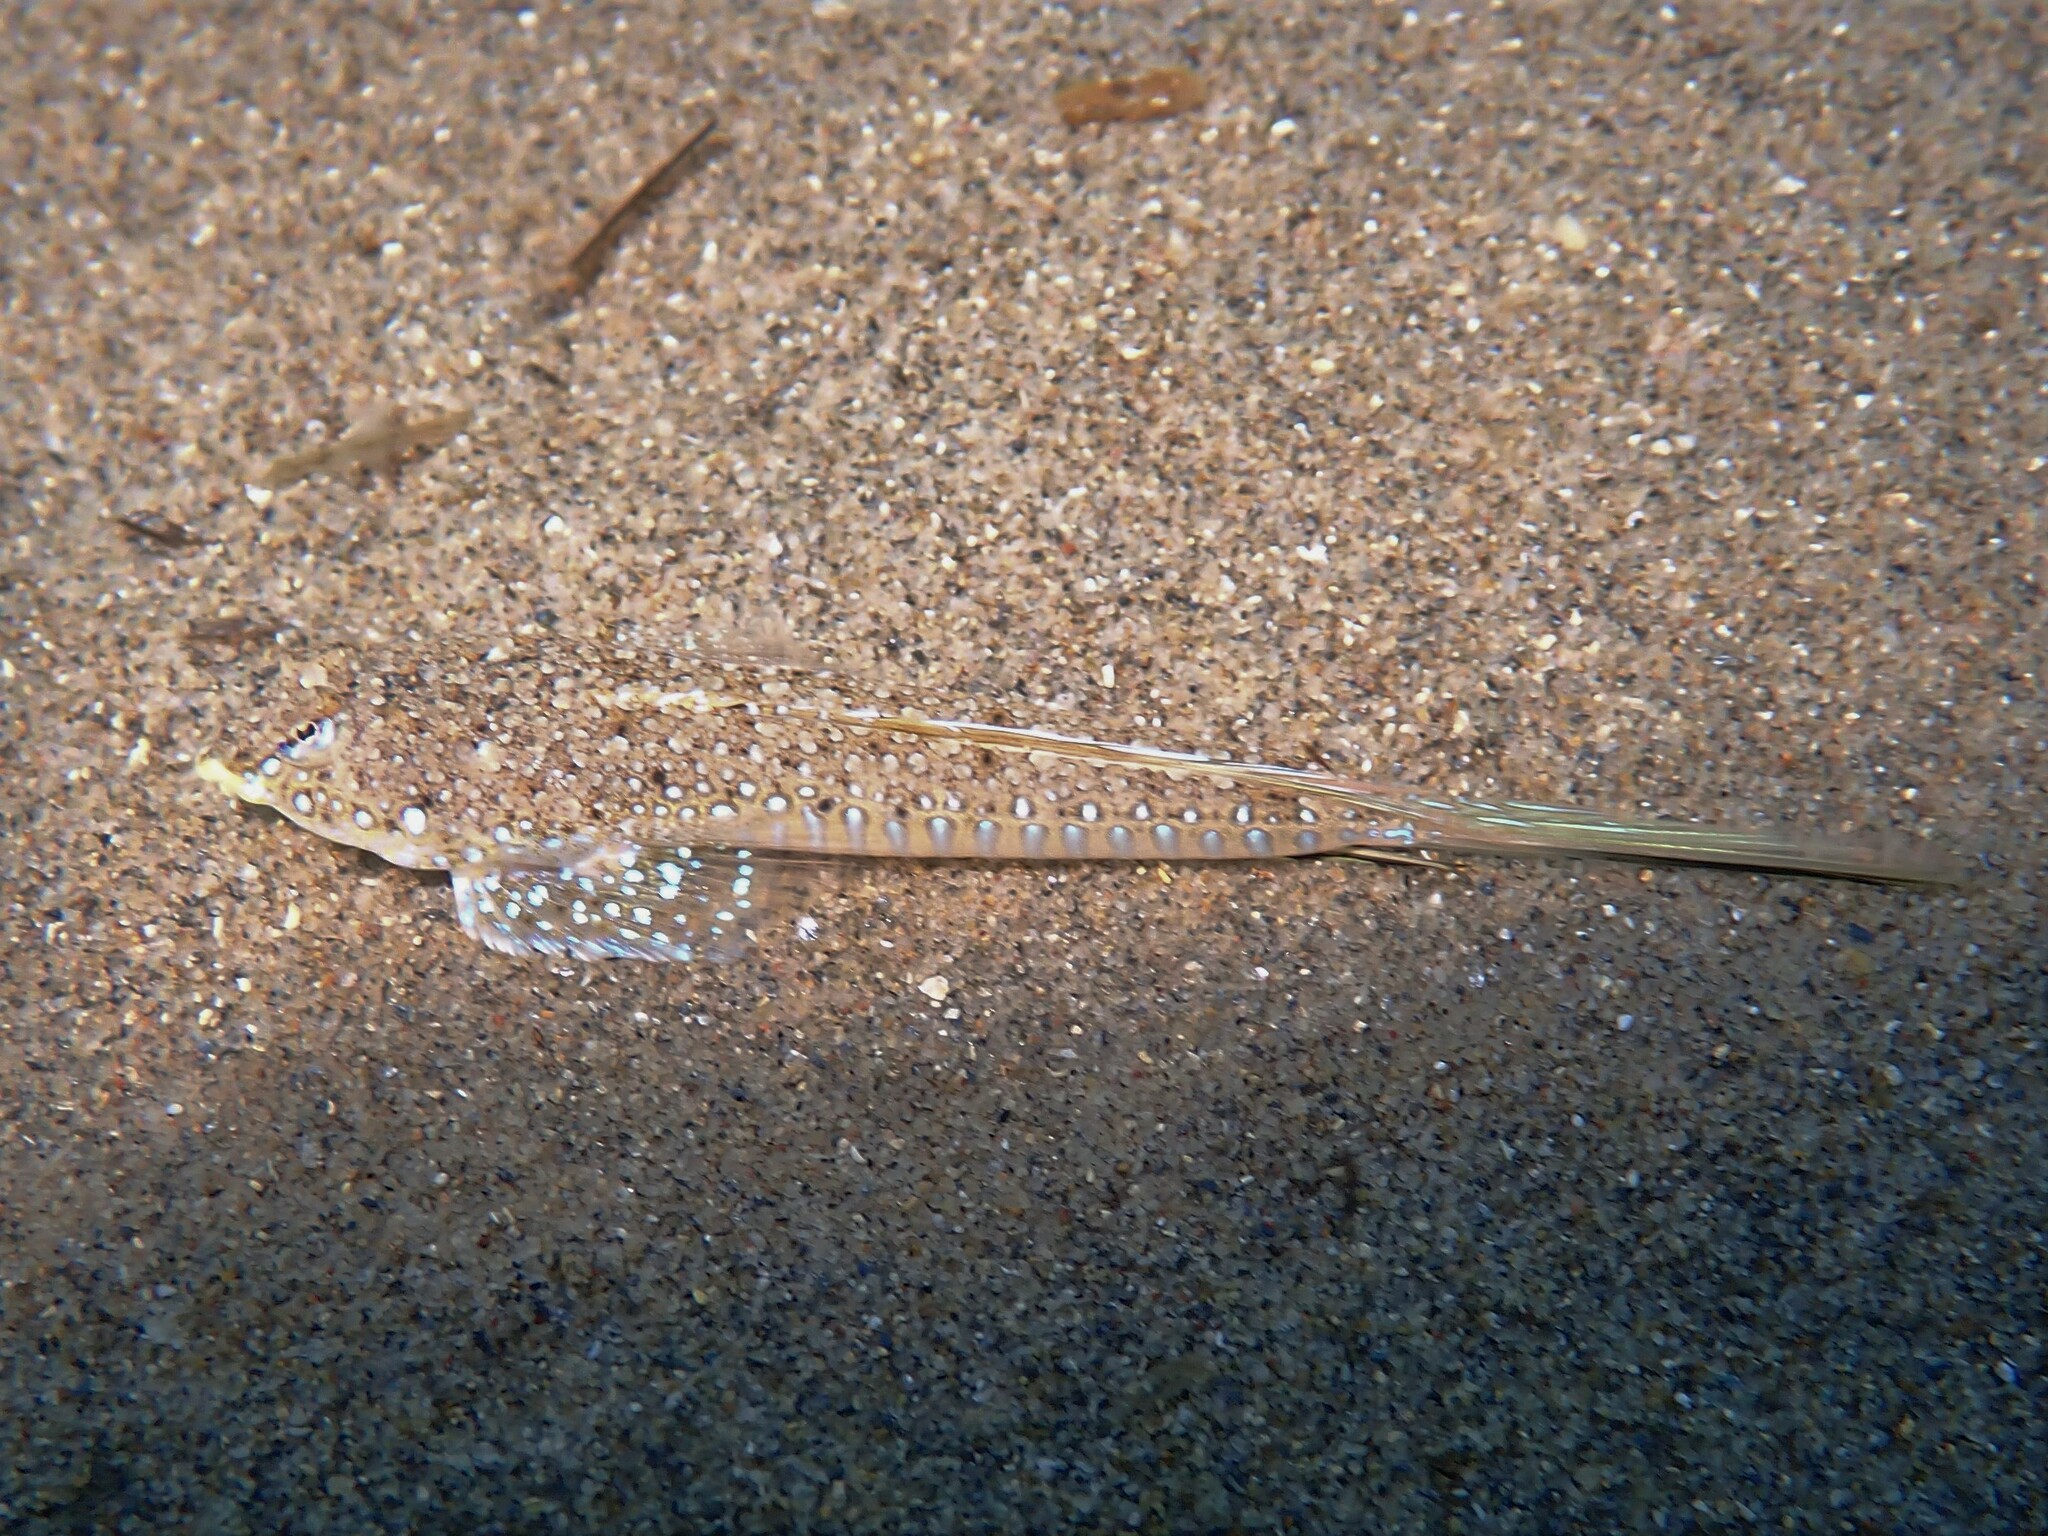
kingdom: Animalia
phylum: Chordata
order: Perciformes
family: Callionymidae
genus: Callionymus
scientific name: Callionymus pusillus
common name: Sailfin dragonet
